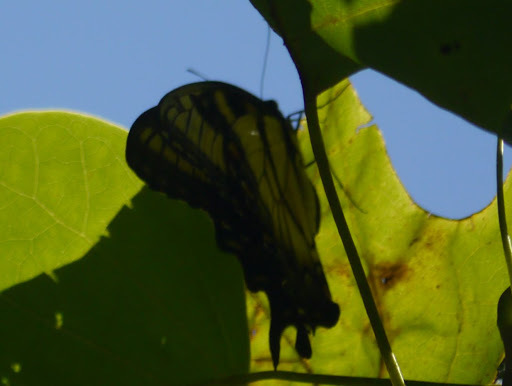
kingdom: Animalia
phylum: Arthropoda
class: Insecta
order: Lepidoptera
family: Papilionidae
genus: Papilio
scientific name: Papilio glaucus
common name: Tiger swallowtail
